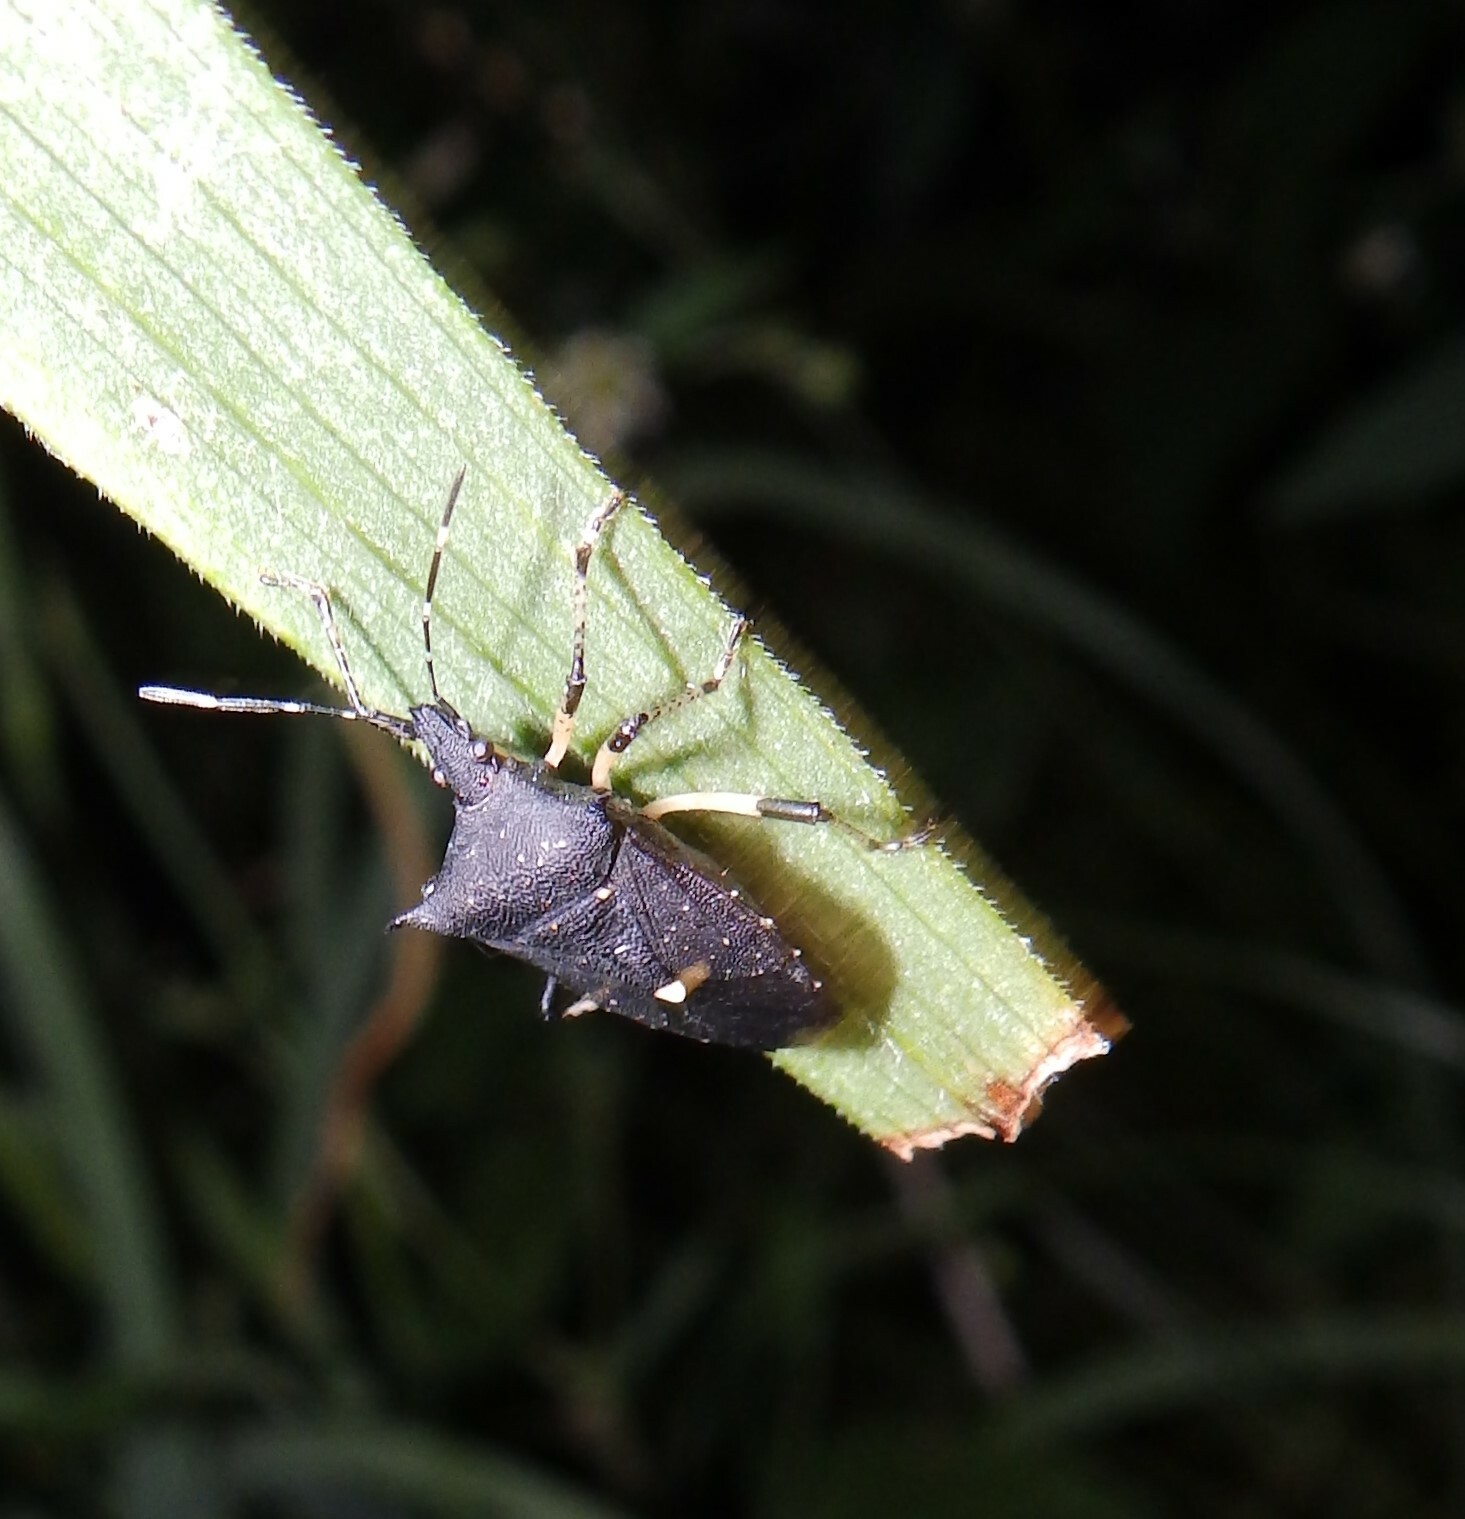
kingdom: Animalia
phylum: Arthropoda
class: Insecta
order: Hemiptera
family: Pentatomidae
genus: Proxys
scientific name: Proxys punctulatus
